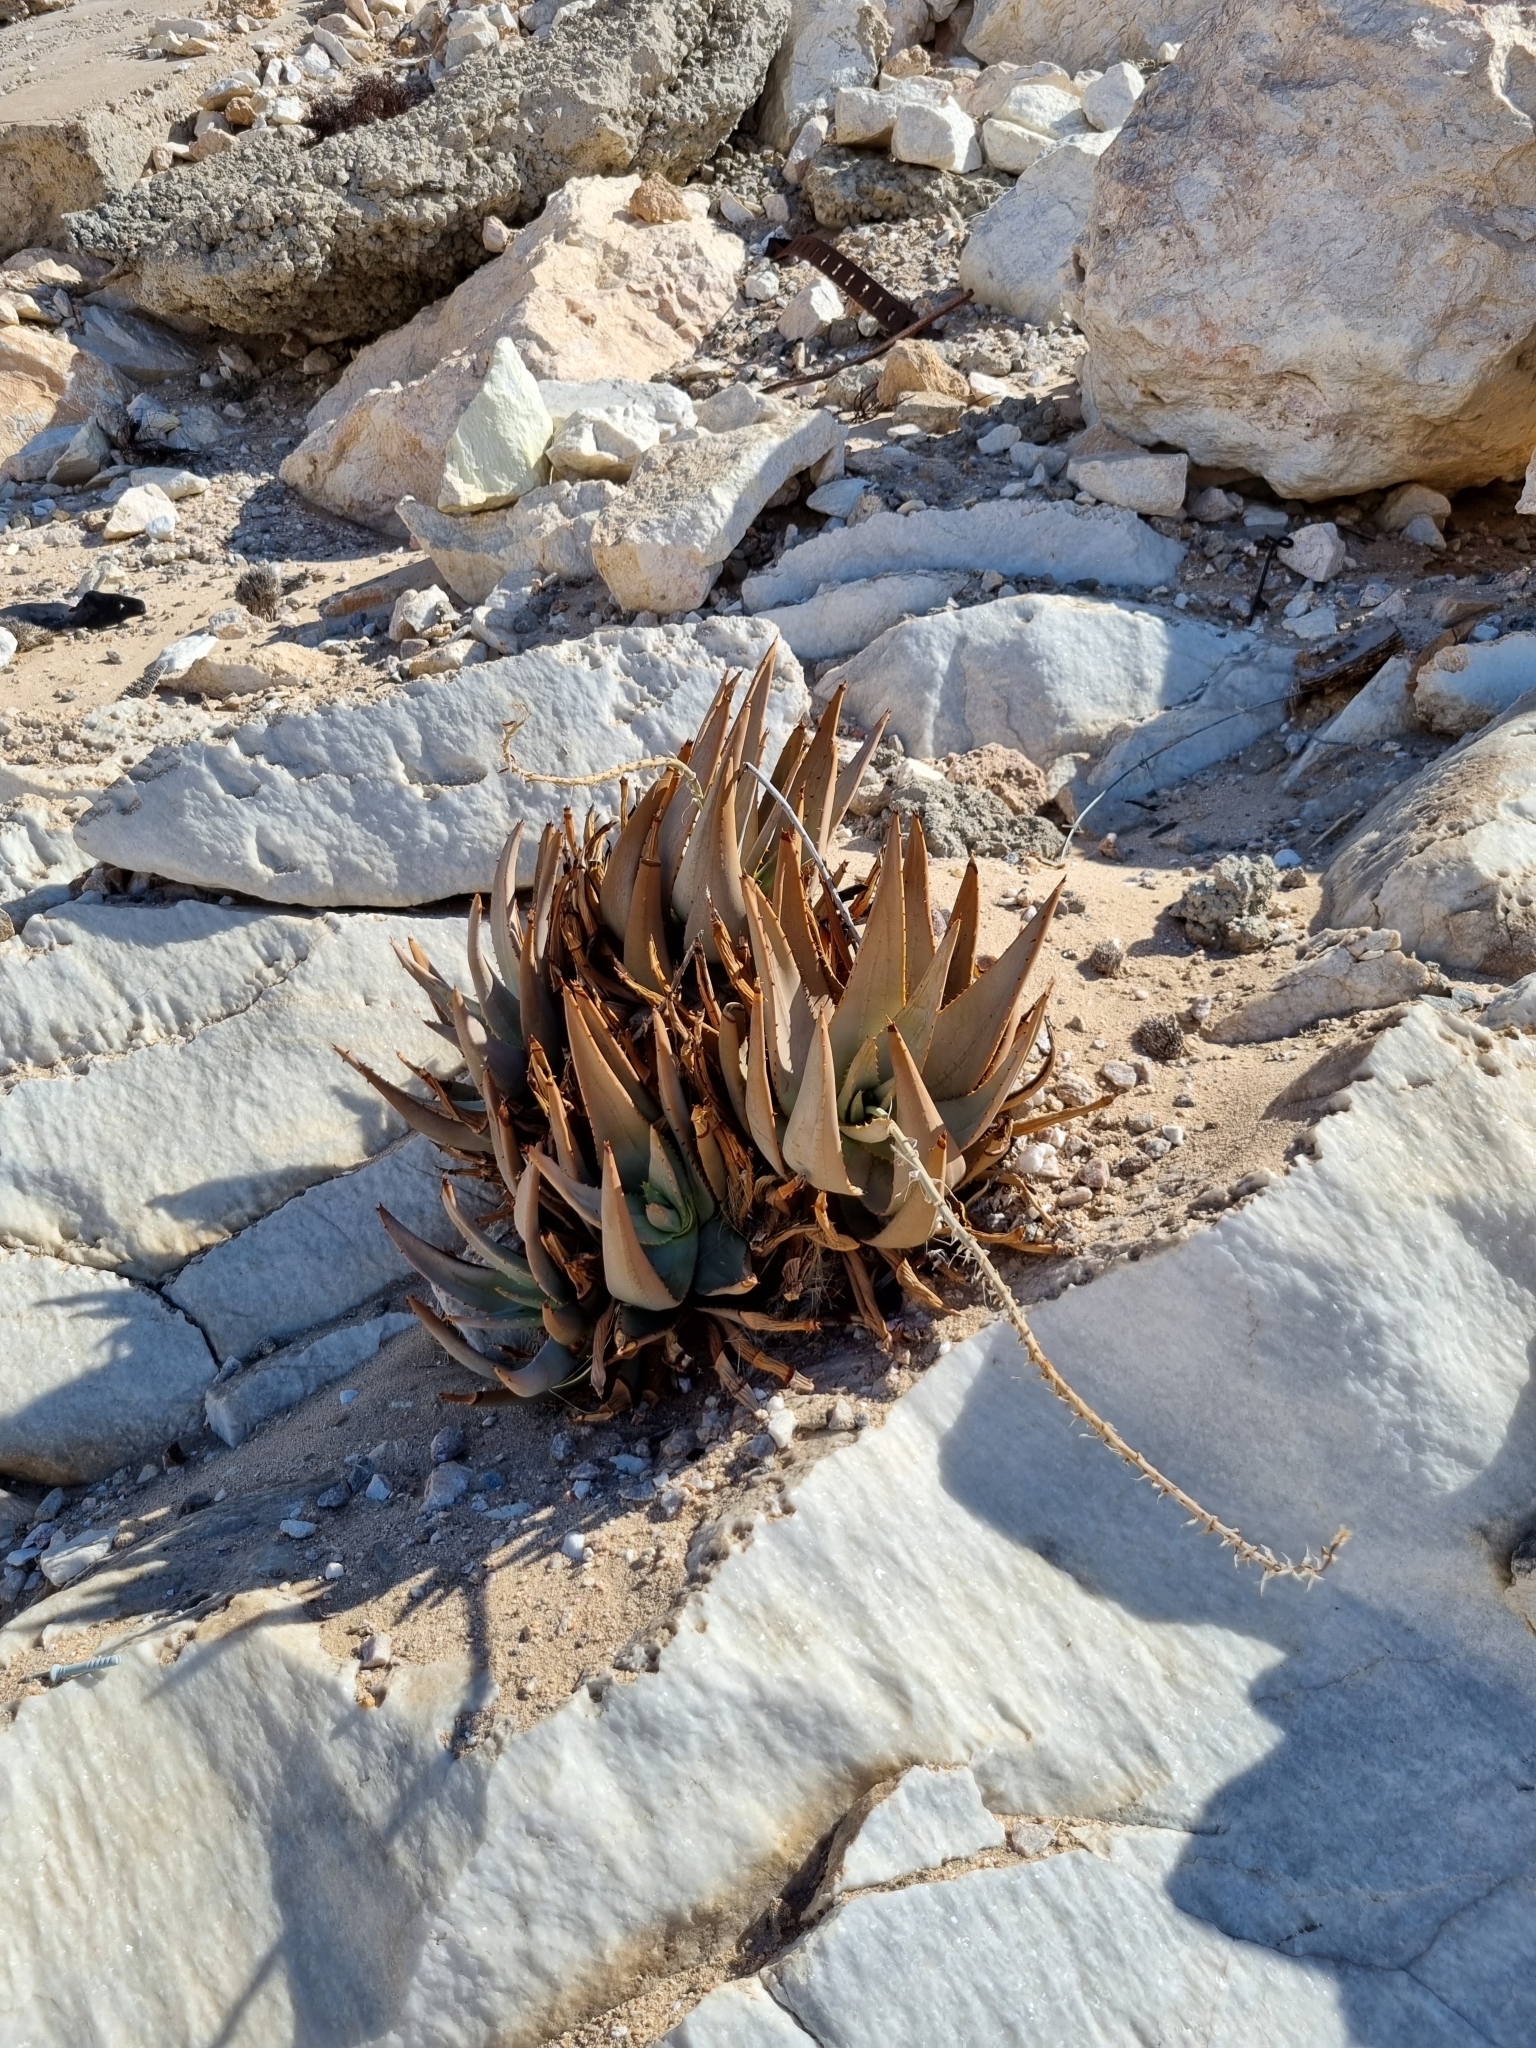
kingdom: Plantae
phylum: Tracheophyta
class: Liliopsida
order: Asparagales
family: Asphodelaceae
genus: Aloe
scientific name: Aloe asperifolia
